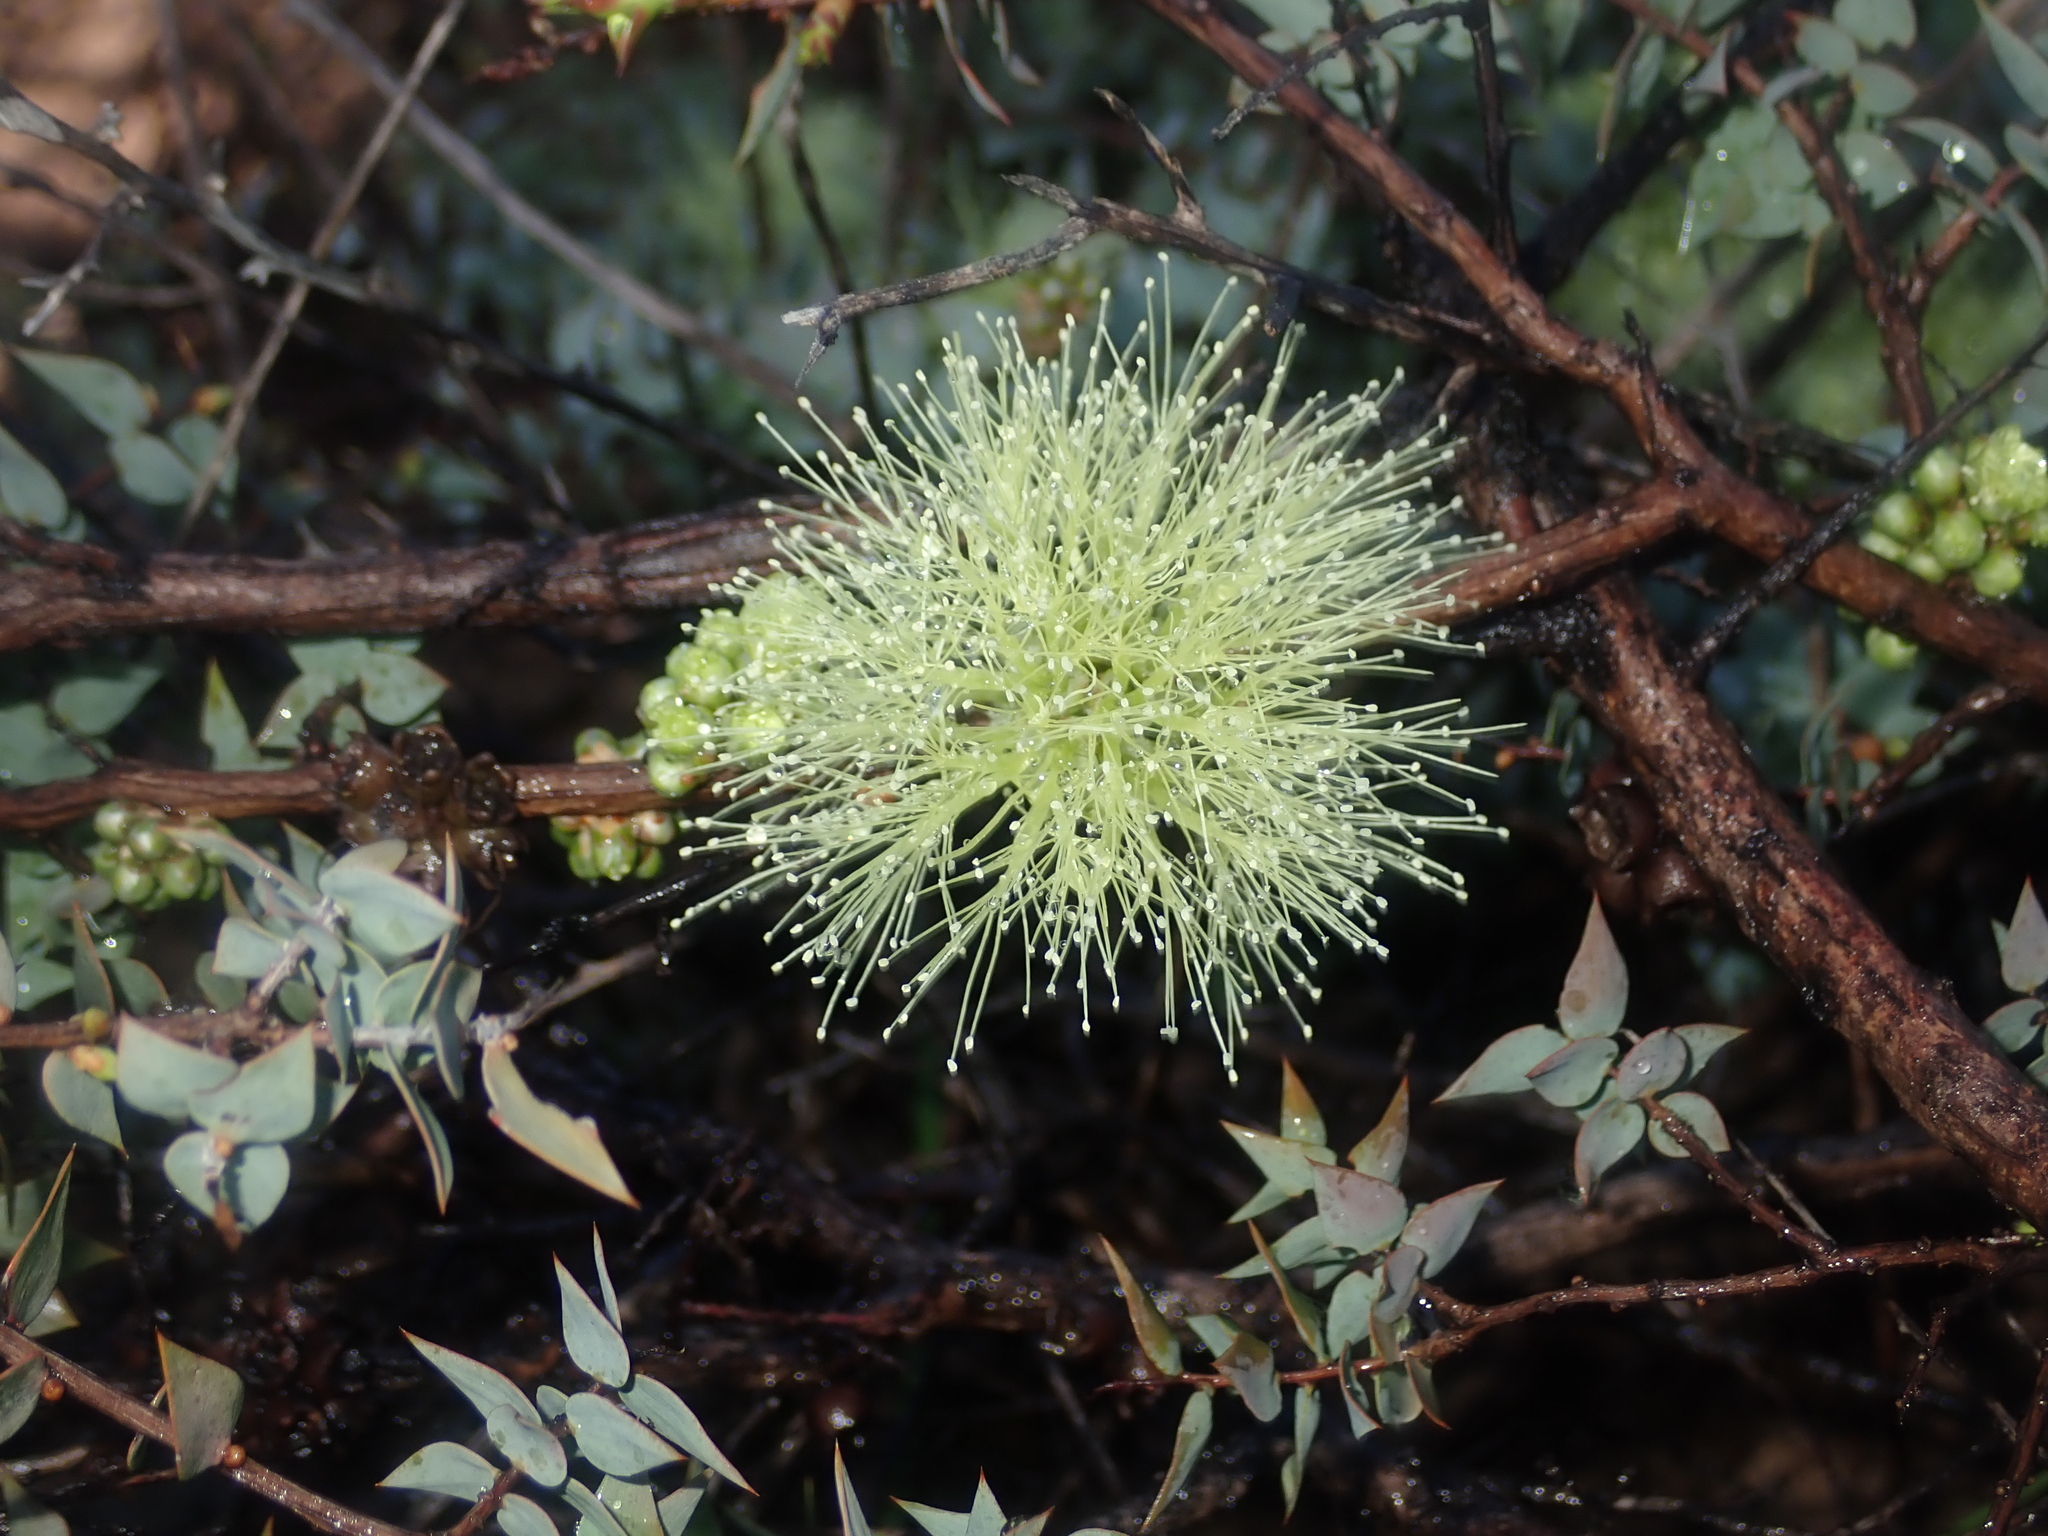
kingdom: Plantae
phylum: Tracheophyta
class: Magnoliopsida
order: Myrtales
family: Myrtaceae
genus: Melaleuca
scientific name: Melaleuca longistaminea
